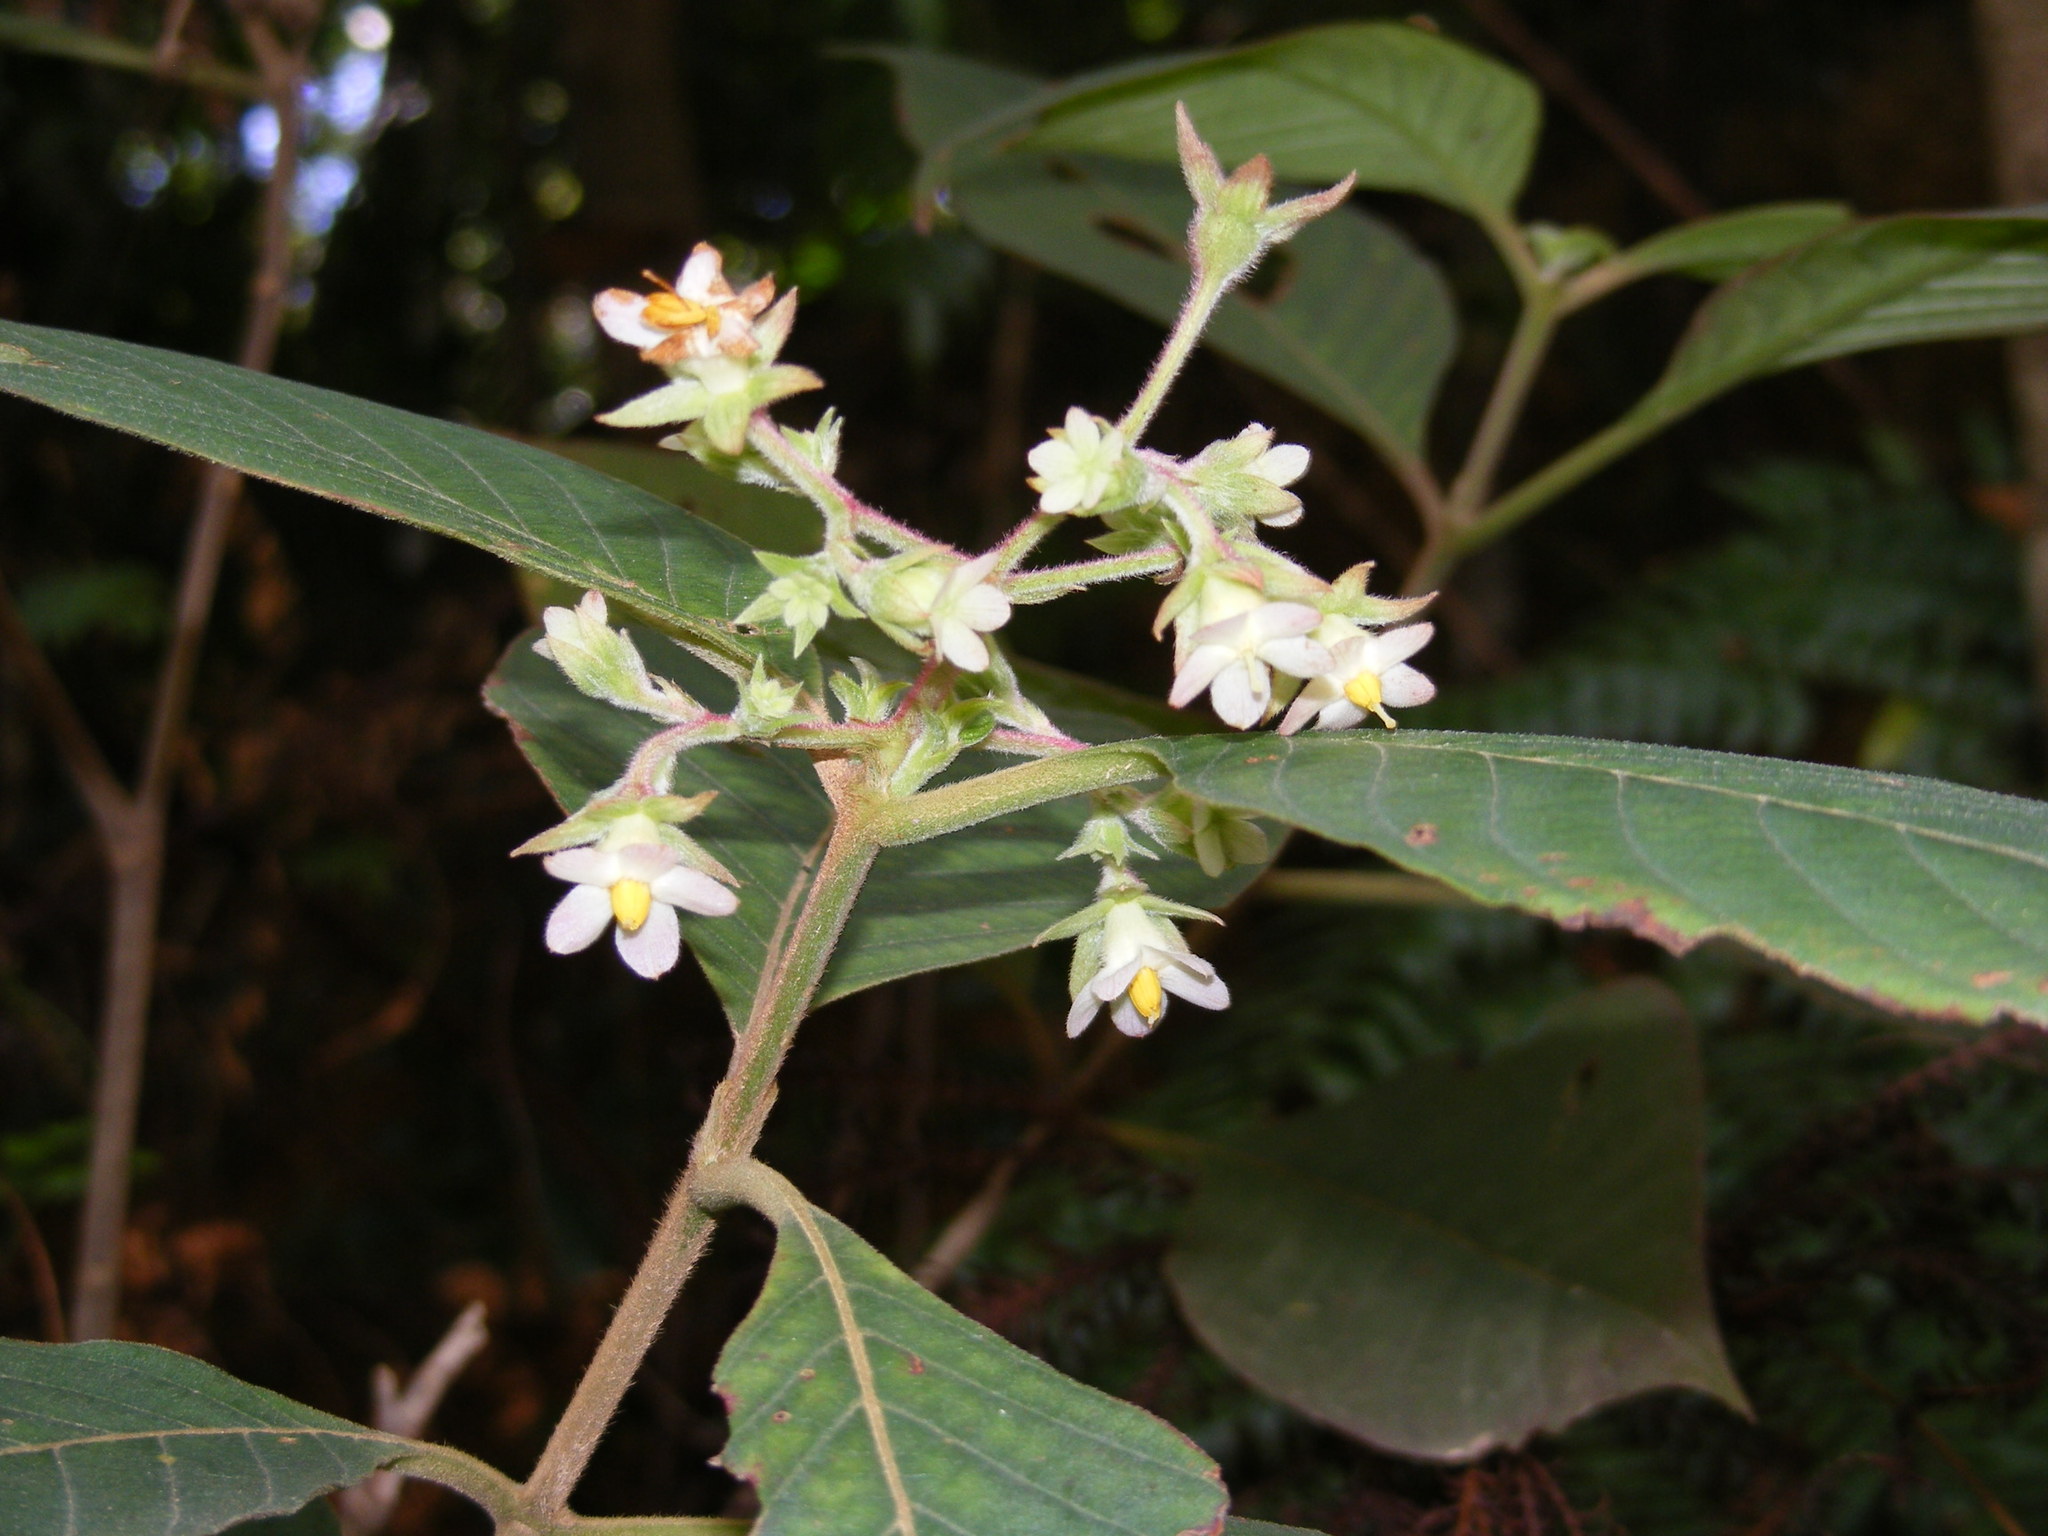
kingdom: Plantae
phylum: Tracheophyta
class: Magnoliopsida
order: Gentianales
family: Rubiaceae
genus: Wendlandia
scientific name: Wendlandia inclusa
